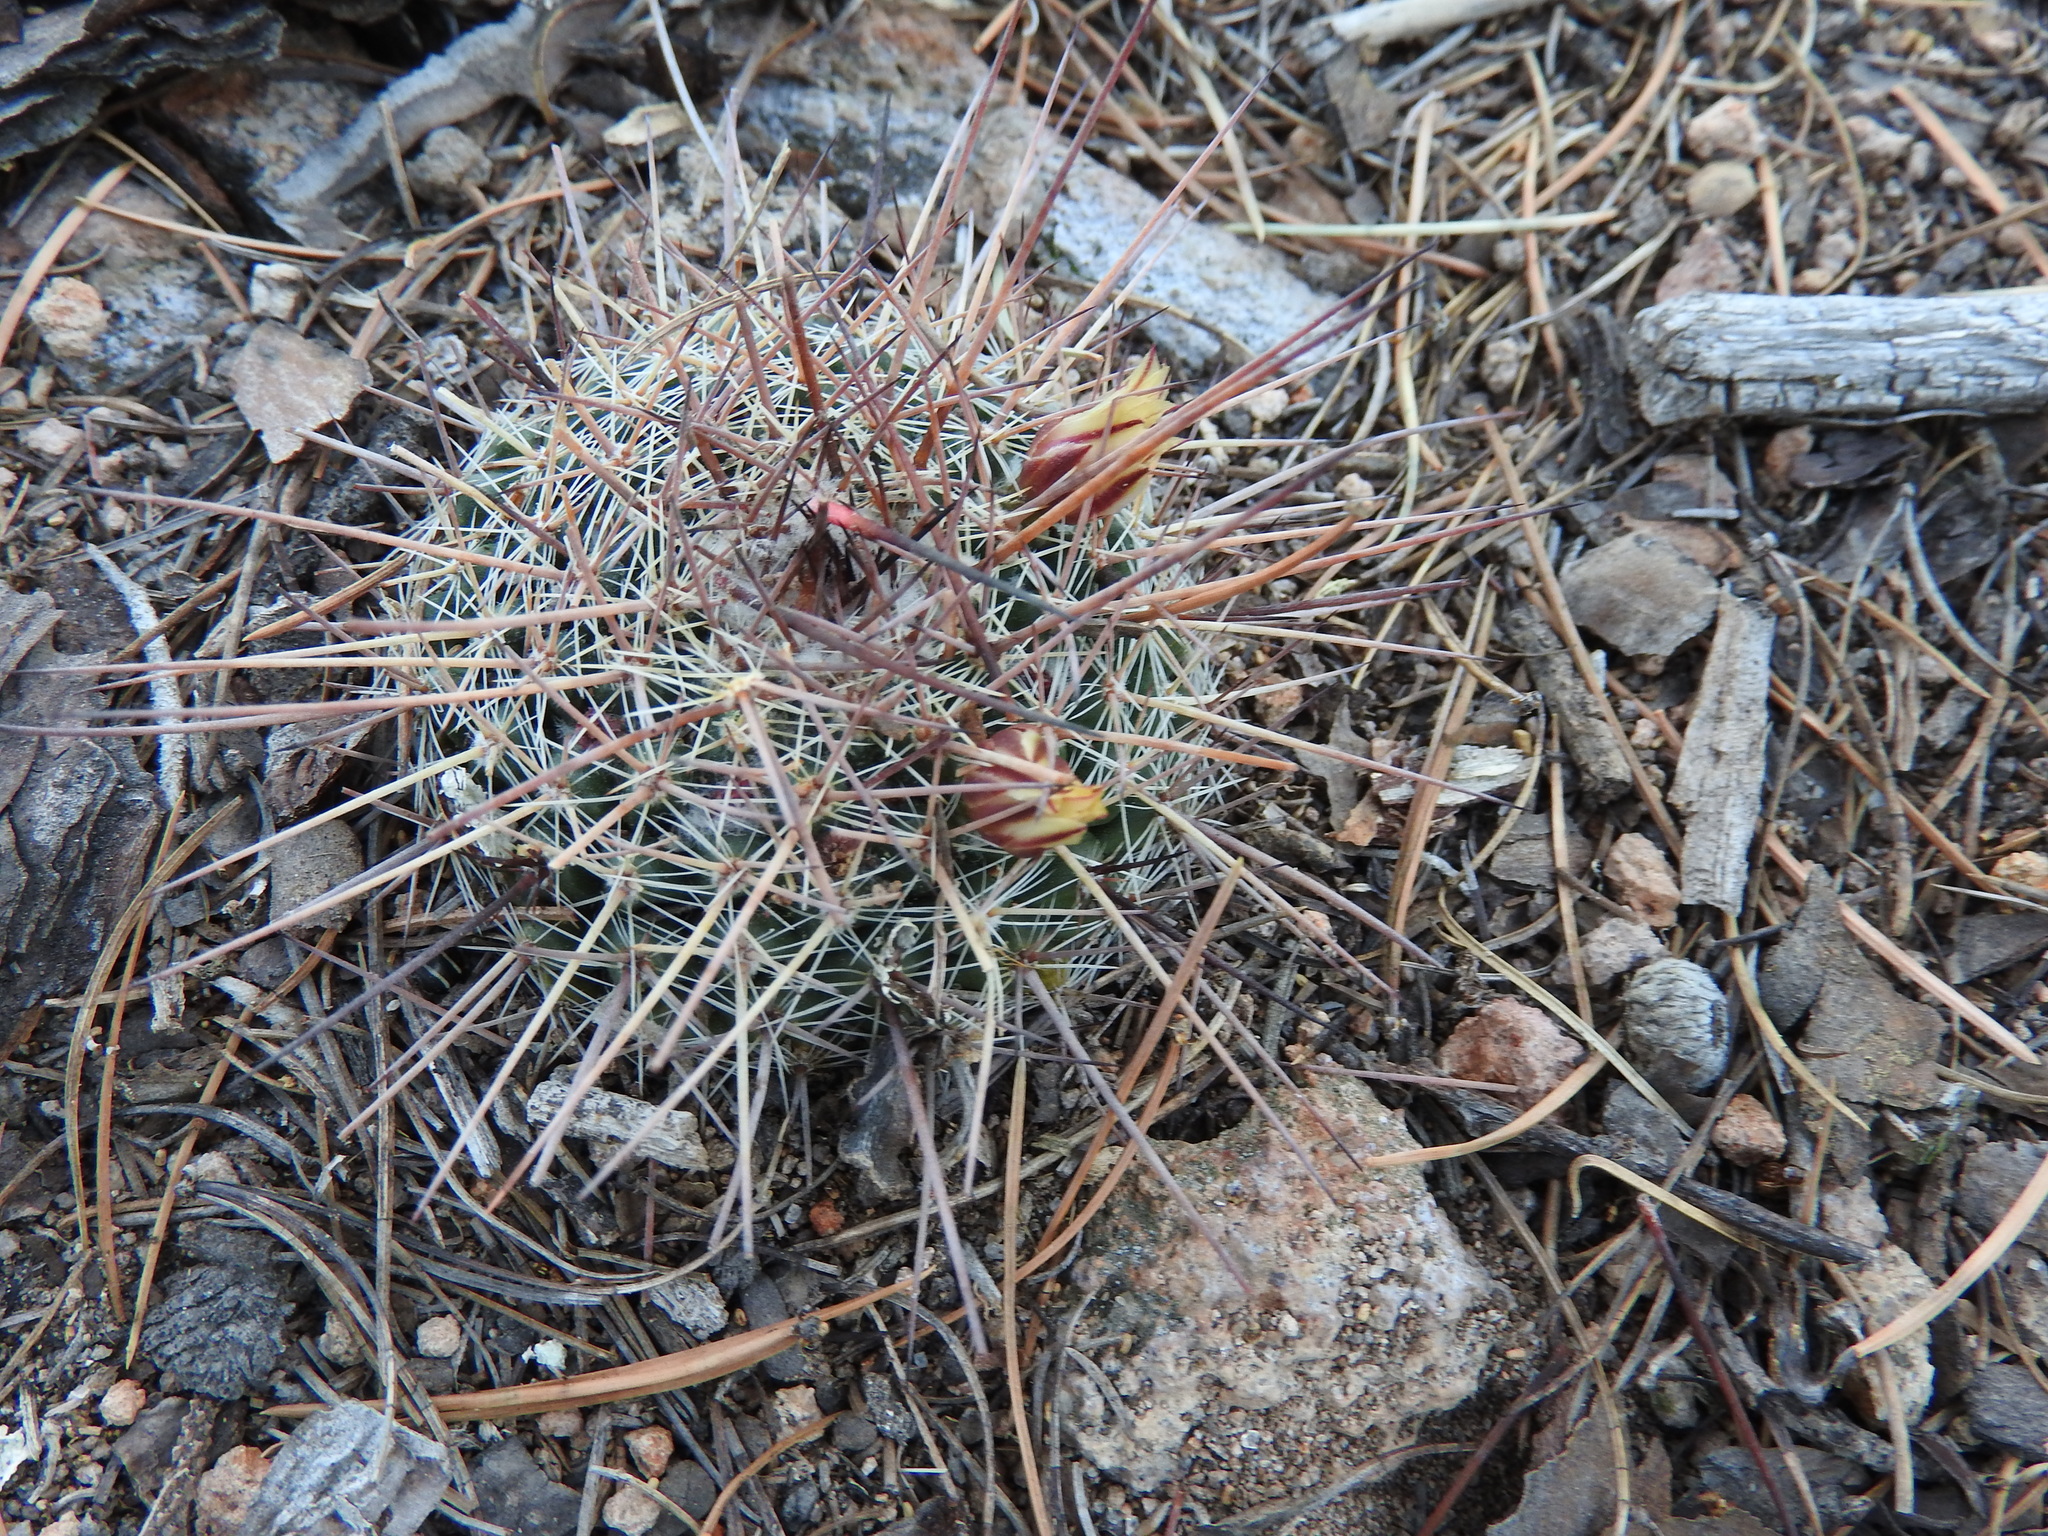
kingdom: Plantae
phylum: Tracheophyta
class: Magnoliopsida
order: Caryophyllales
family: Cactaceae
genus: Mammillaria
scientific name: Mammillaria gigantea
